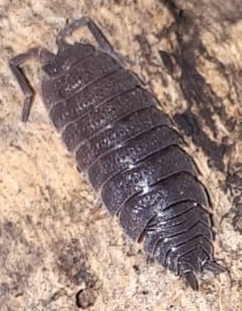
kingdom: Animalia
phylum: Arthropoda
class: Malacostraca
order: Isopoda
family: Porcellionidae
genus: Porcellio
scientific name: Porcellio scaber
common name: Common rough woodlouse
